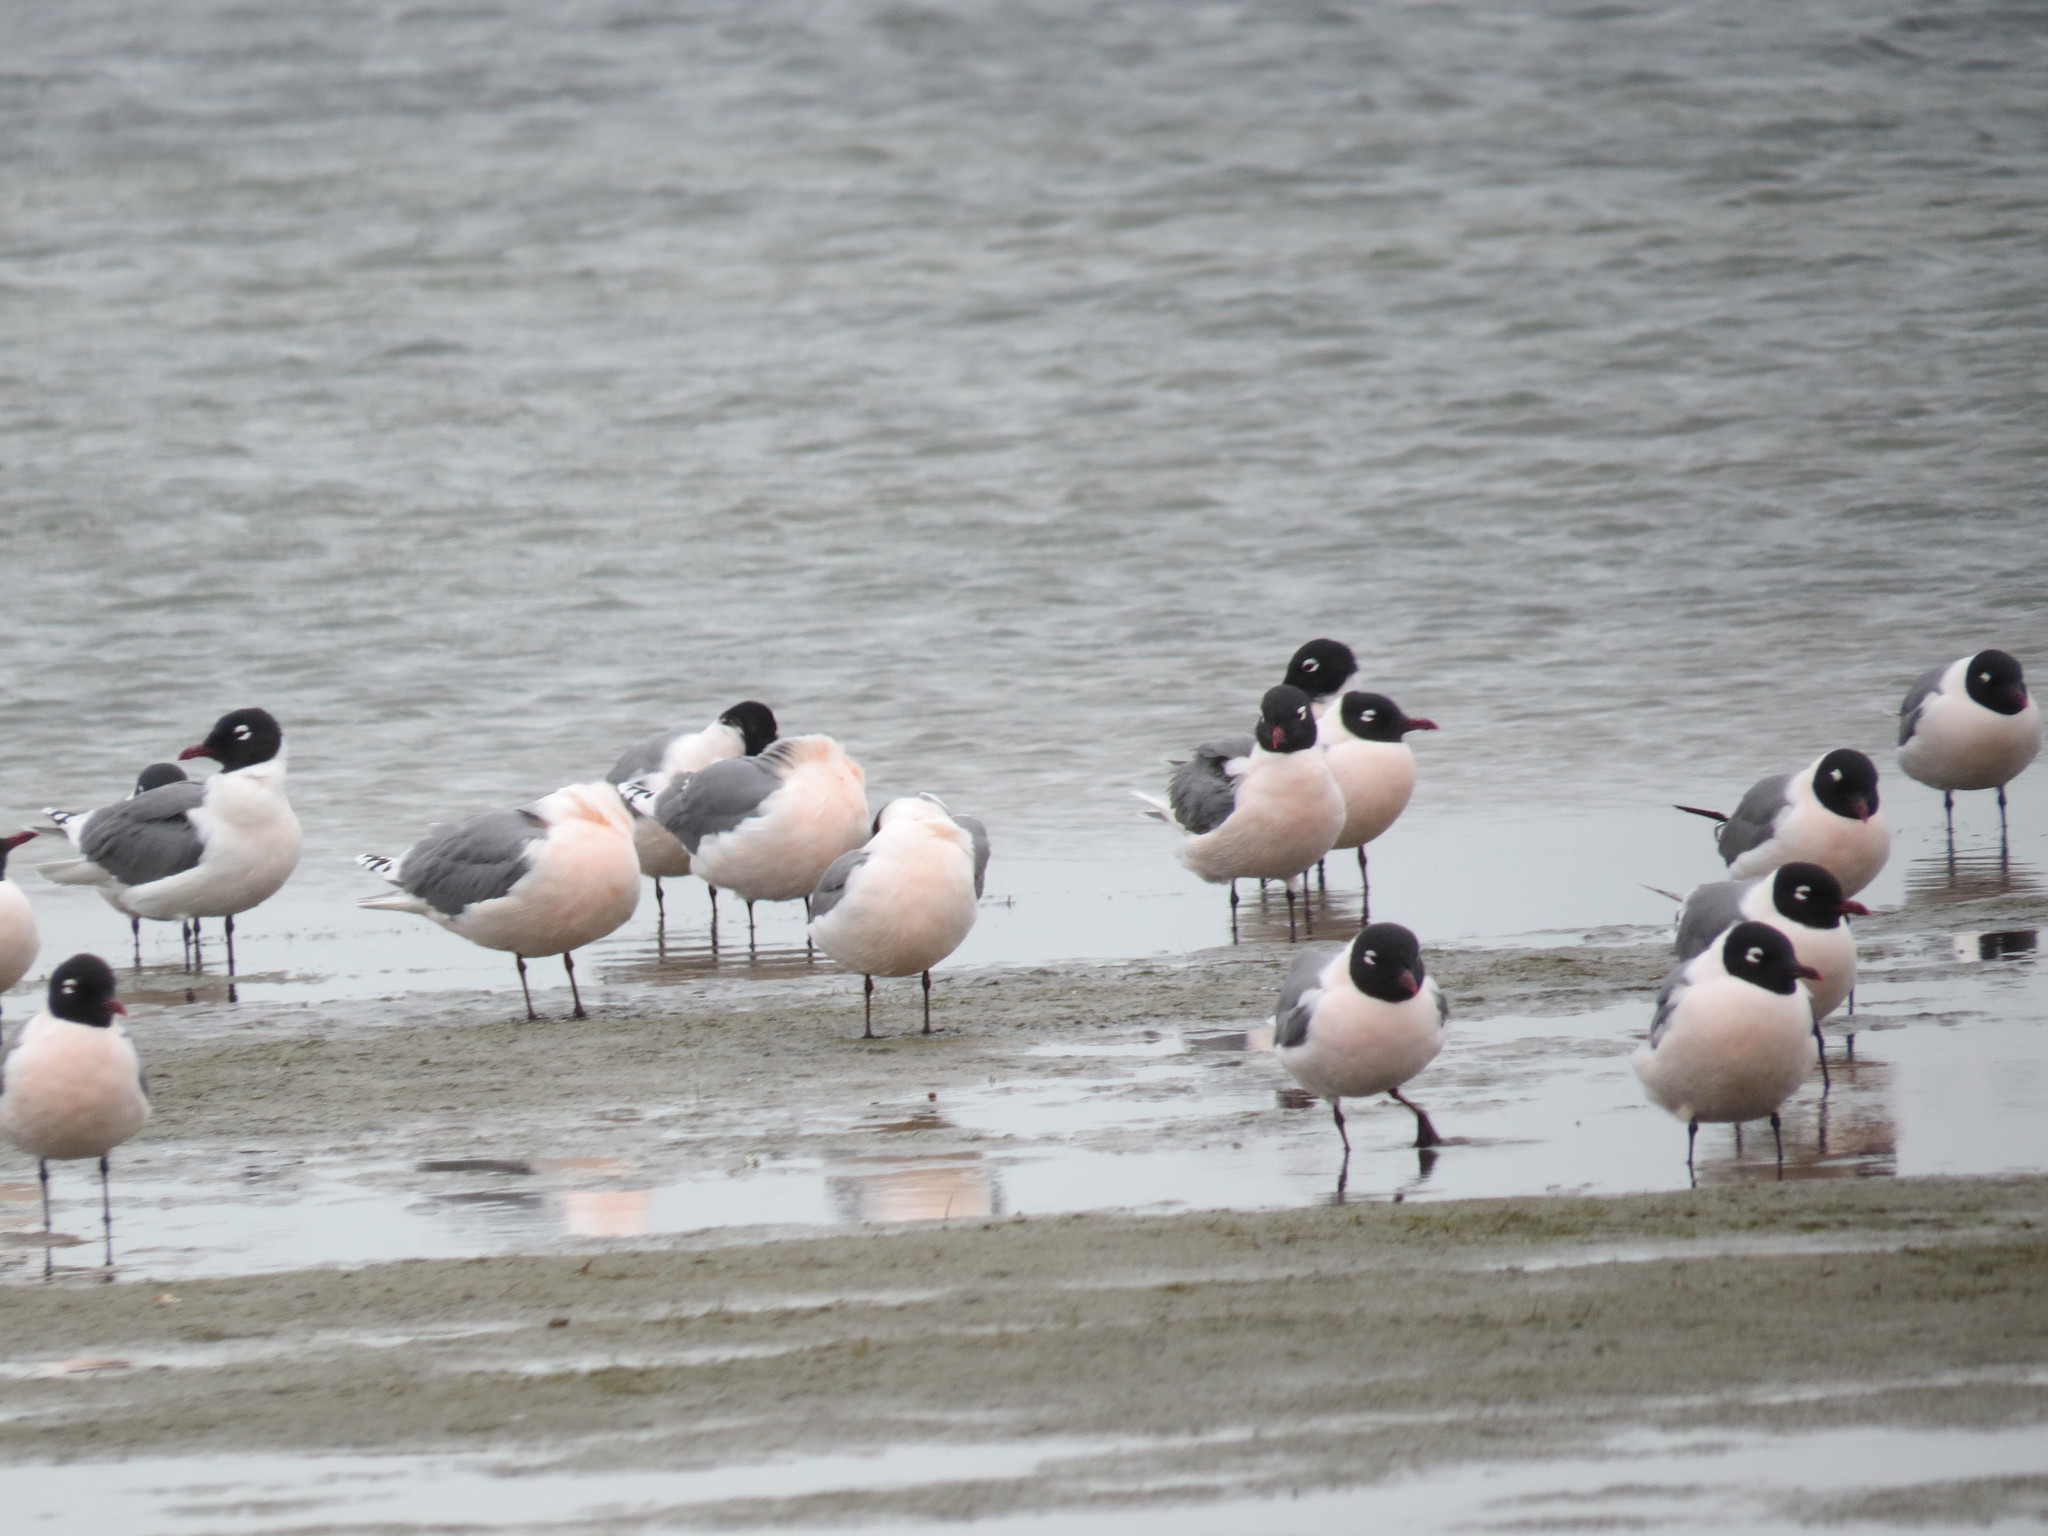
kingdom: Animalia
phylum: Chordata
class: Aves
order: Charadriiformes
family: Laridae
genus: Leucophaeus
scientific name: Leucophaeus pipixcan
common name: Franklin's gull
